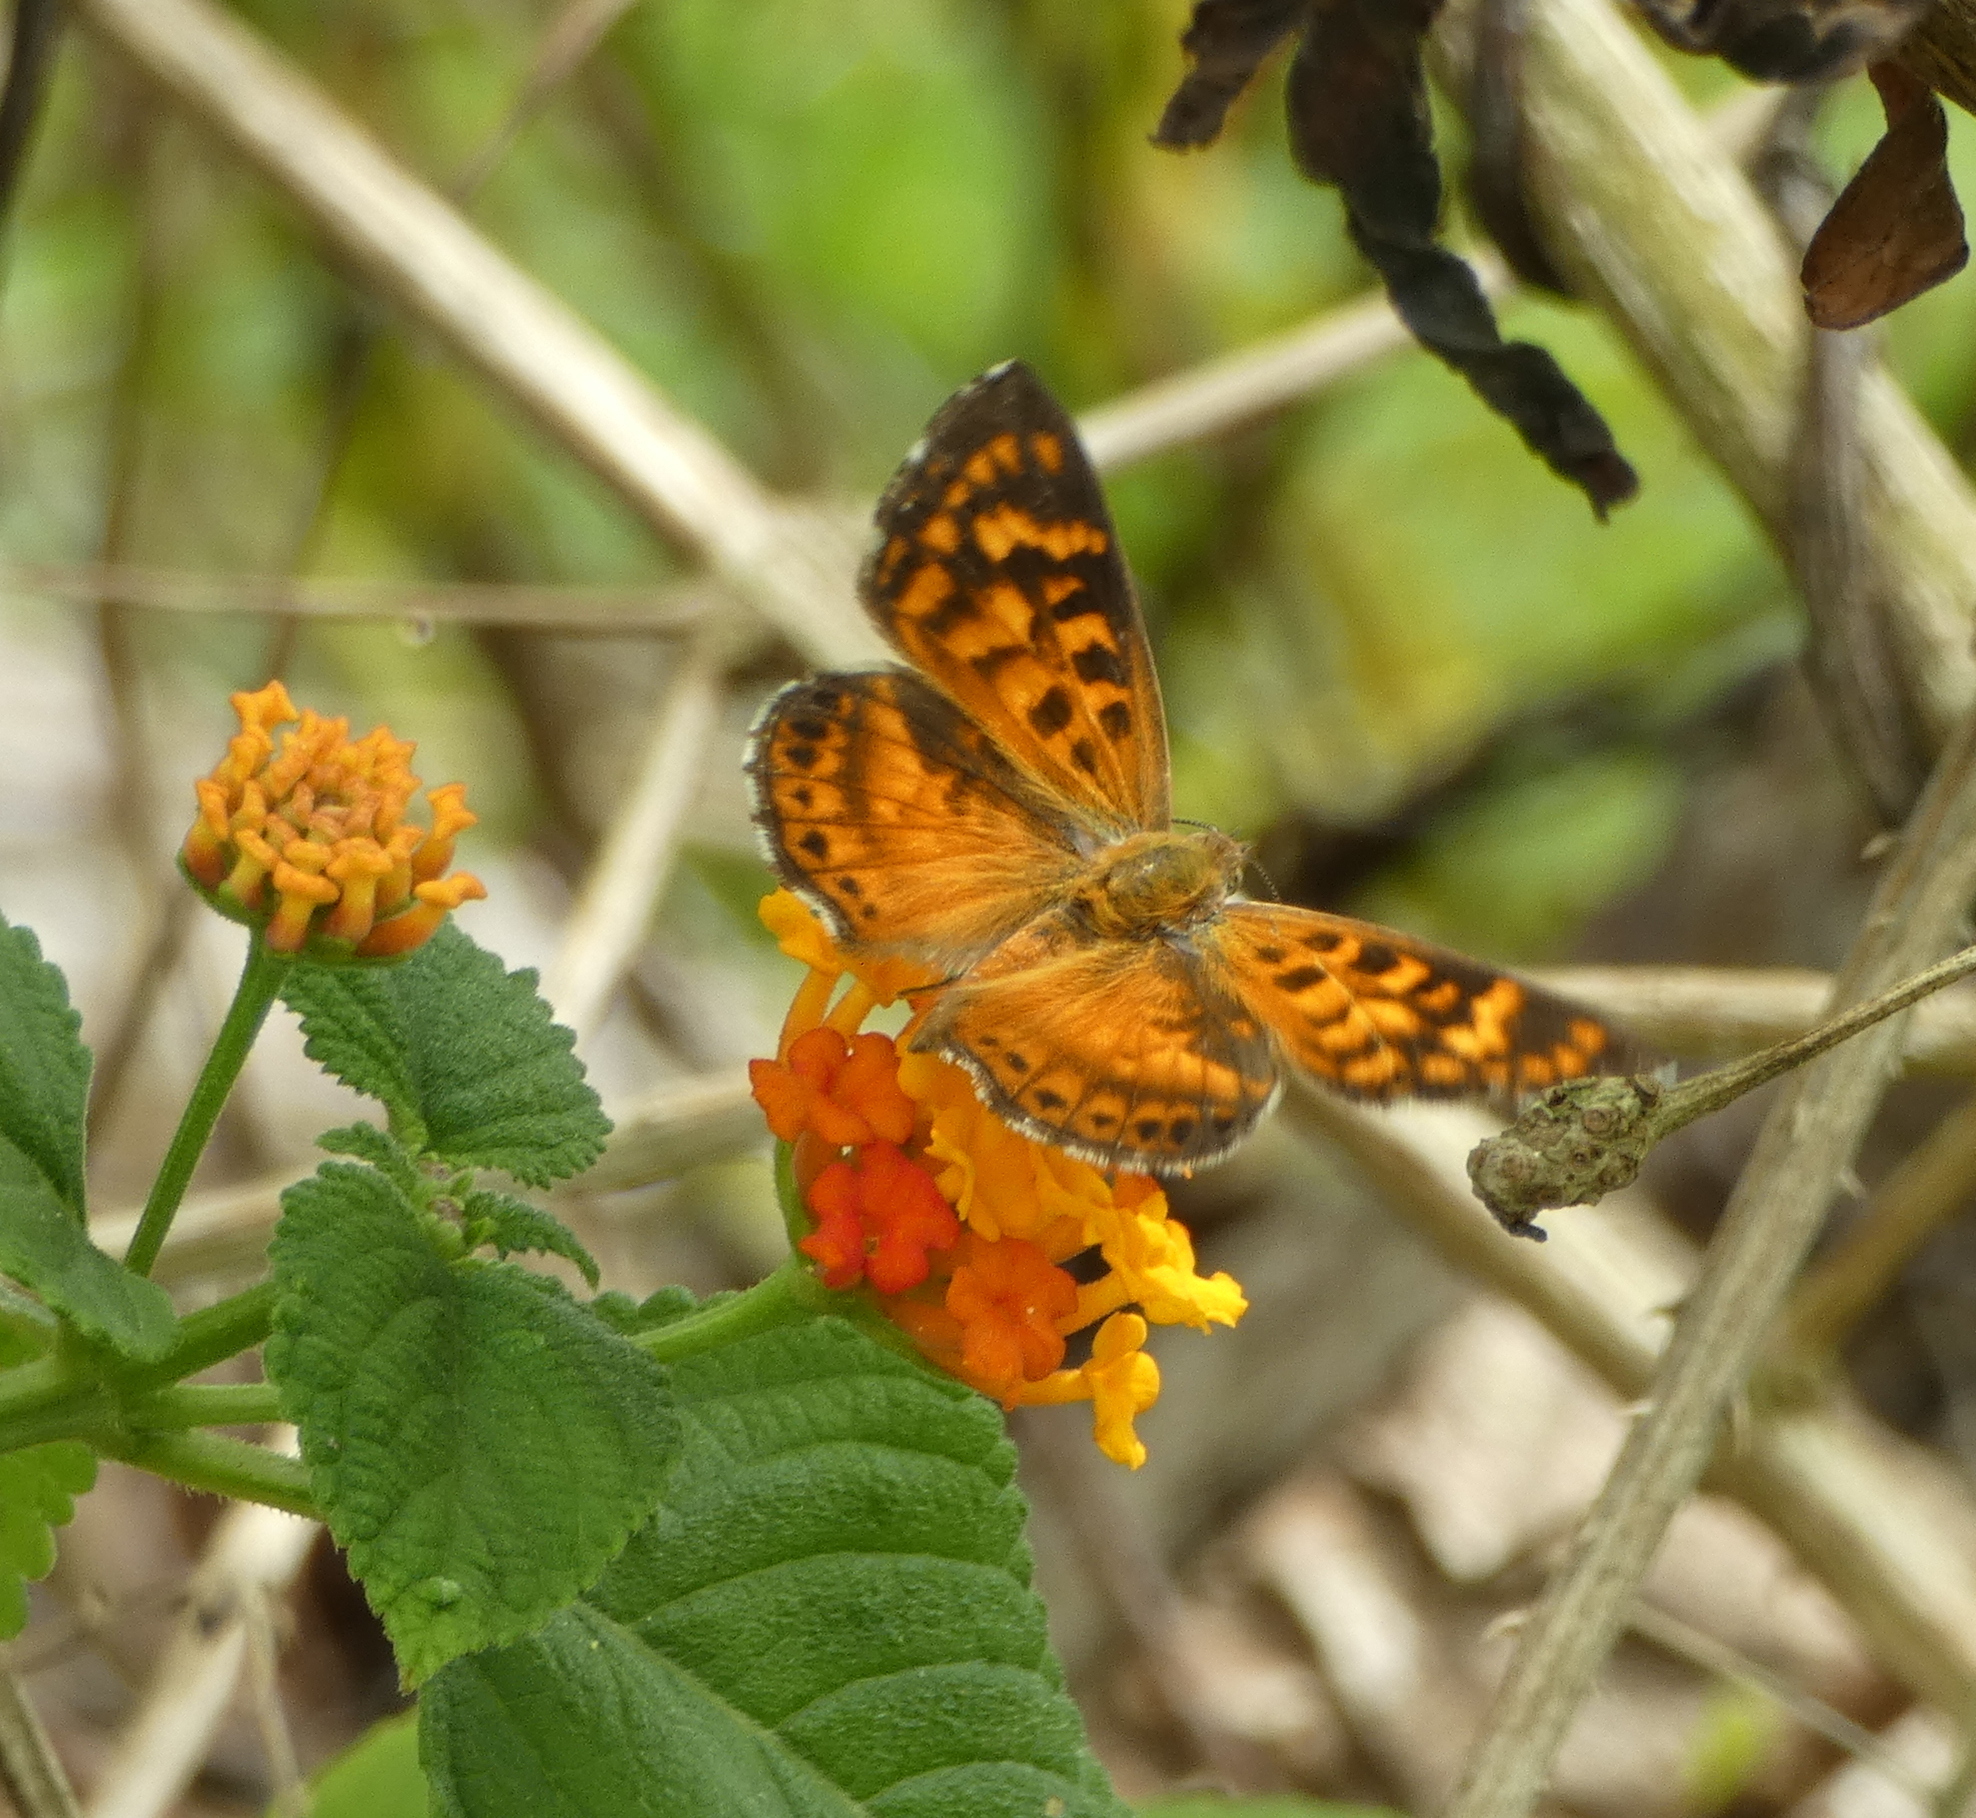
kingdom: Animalia
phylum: Arthropoda
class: Insecta
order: Lepidoptera
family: Lycaenidae
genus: Aricoris
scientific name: Aricoris
